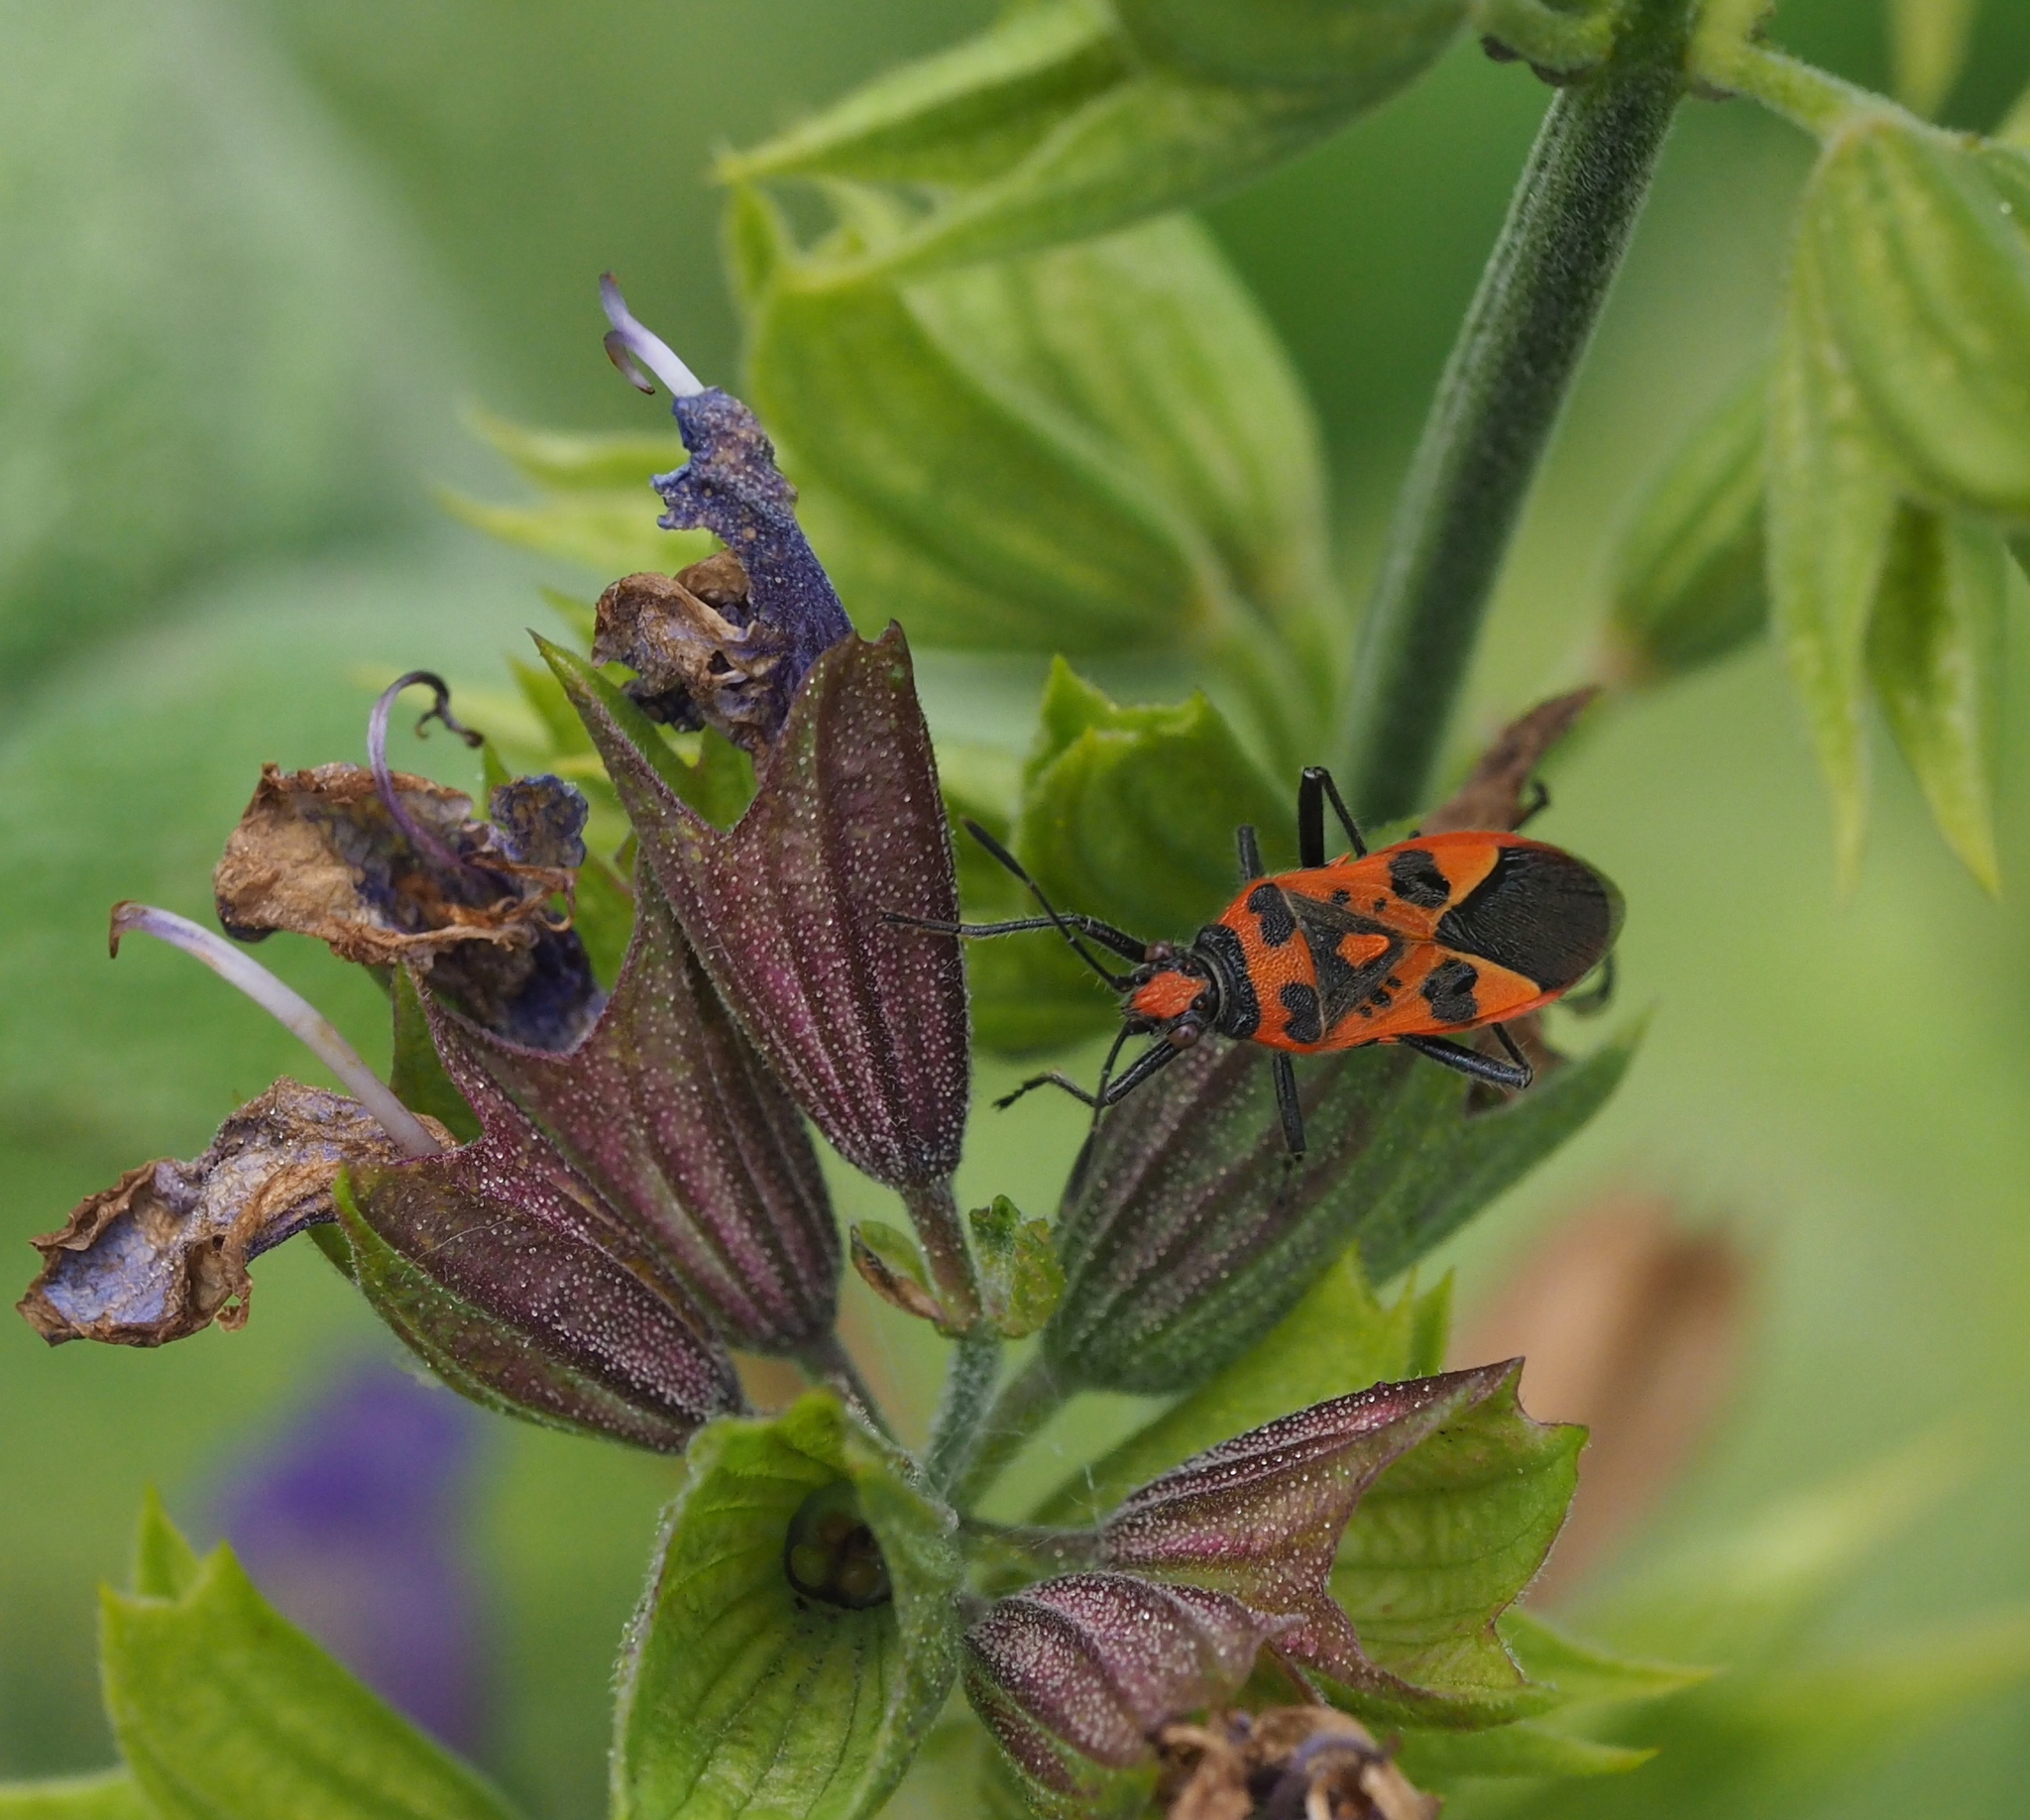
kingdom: Animalia
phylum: Arthropoda
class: Insecta
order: Hemiptera
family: Rhopalidae
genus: Corizus
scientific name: Corizus hyoscyami
